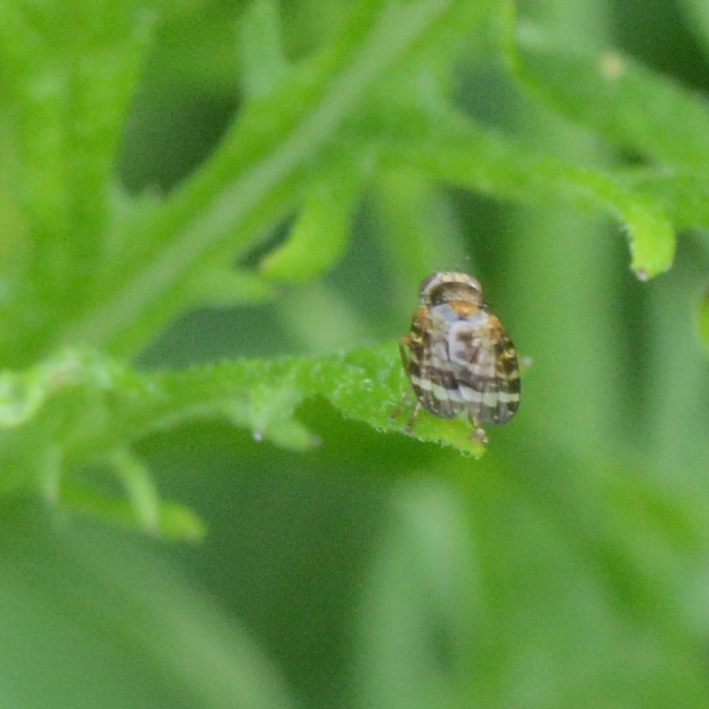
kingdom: Animalia
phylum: Arthropoda
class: Insecta
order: Diptera
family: Tephritidae
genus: Sphenella
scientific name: Sphenella
